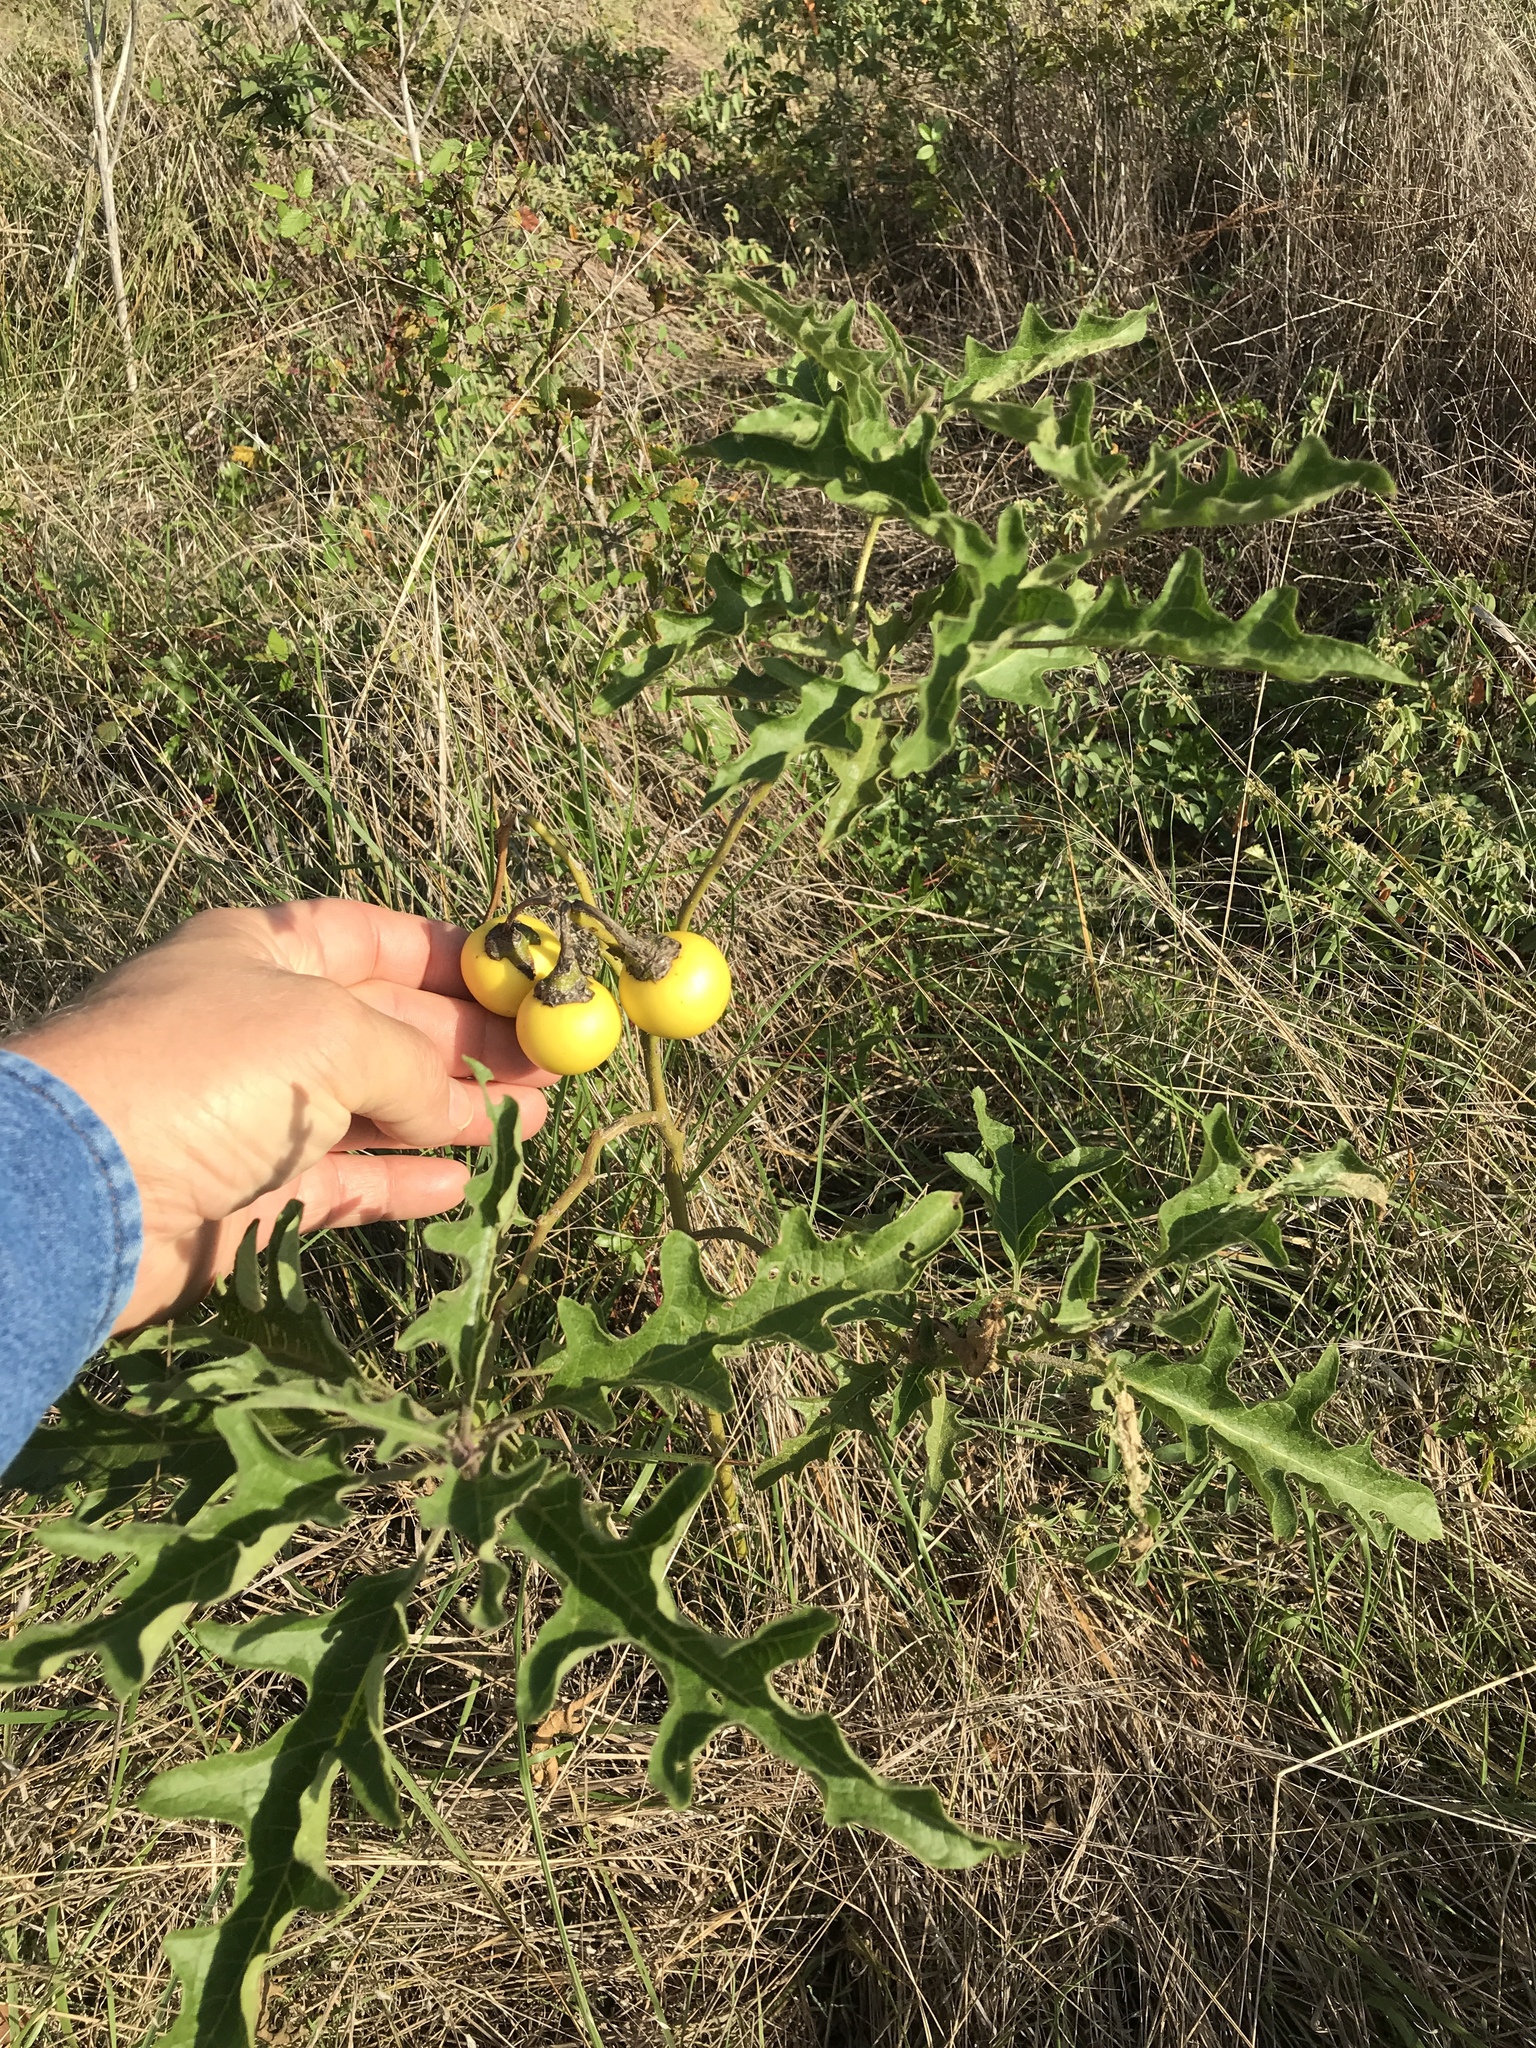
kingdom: Plantae
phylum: Tracheophyta
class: Magnoliopsida
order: Solanales
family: Solanaceae
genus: Solanum
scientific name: Solanum dimidiatum
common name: Carolina horse-nettle
